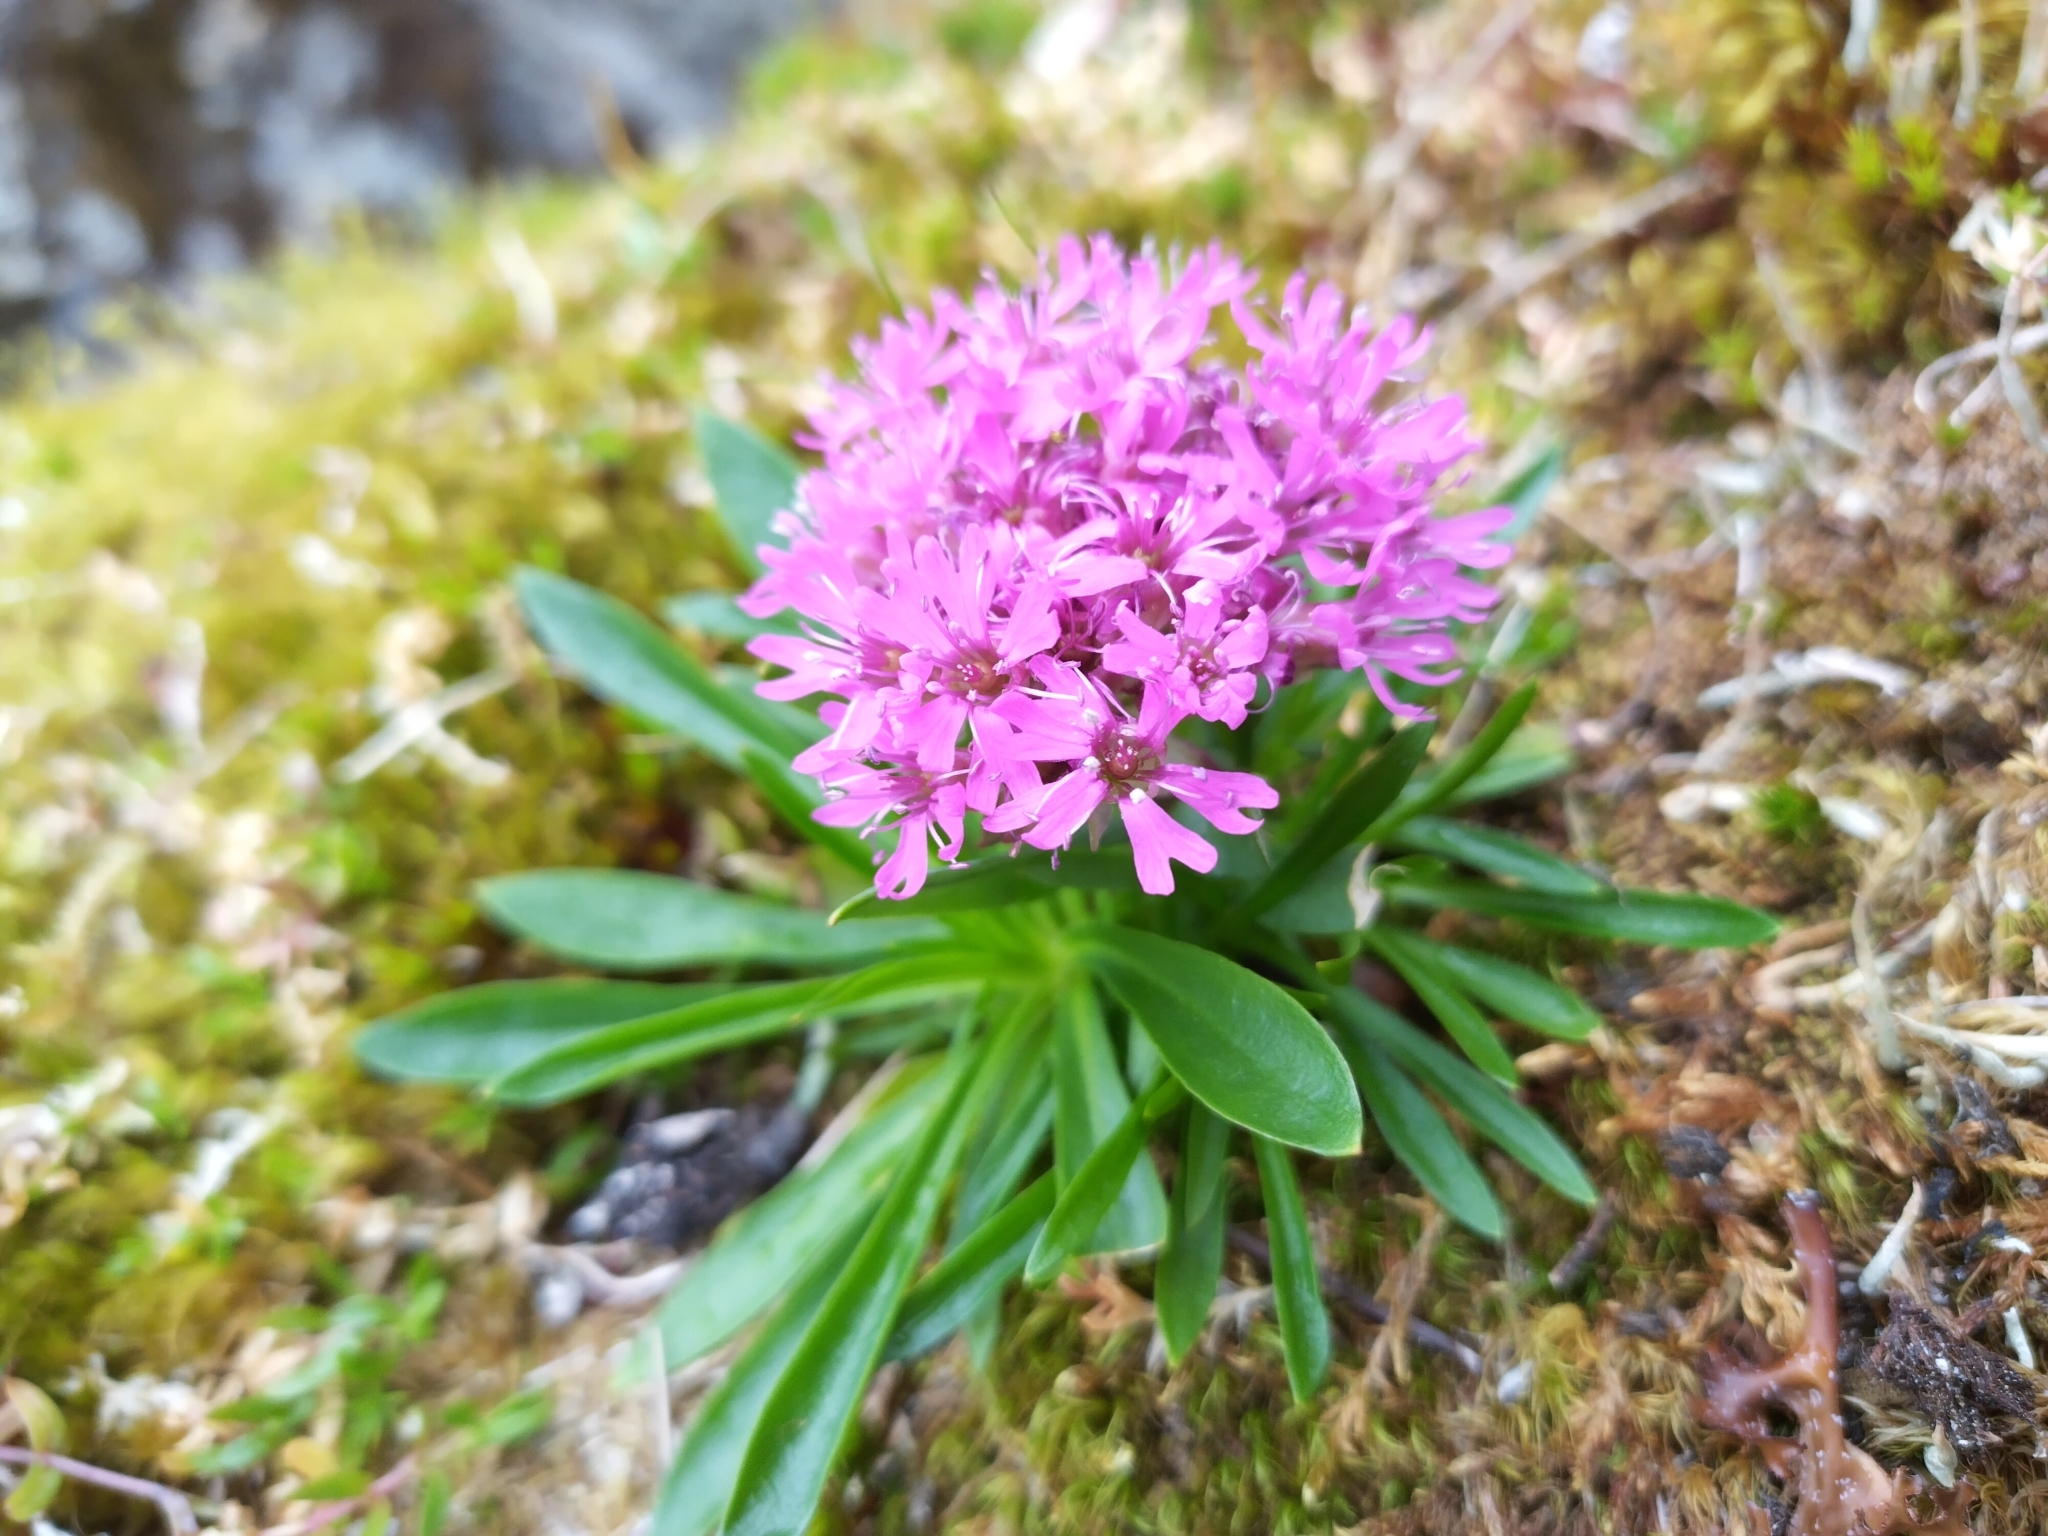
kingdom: Plantae
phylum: Tracheophyta
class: Magnoliopsida
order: Caryophyllales
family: Caryophyllaceae
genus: Viscaria
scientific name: Viscaria alpina
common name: Alpine campion
